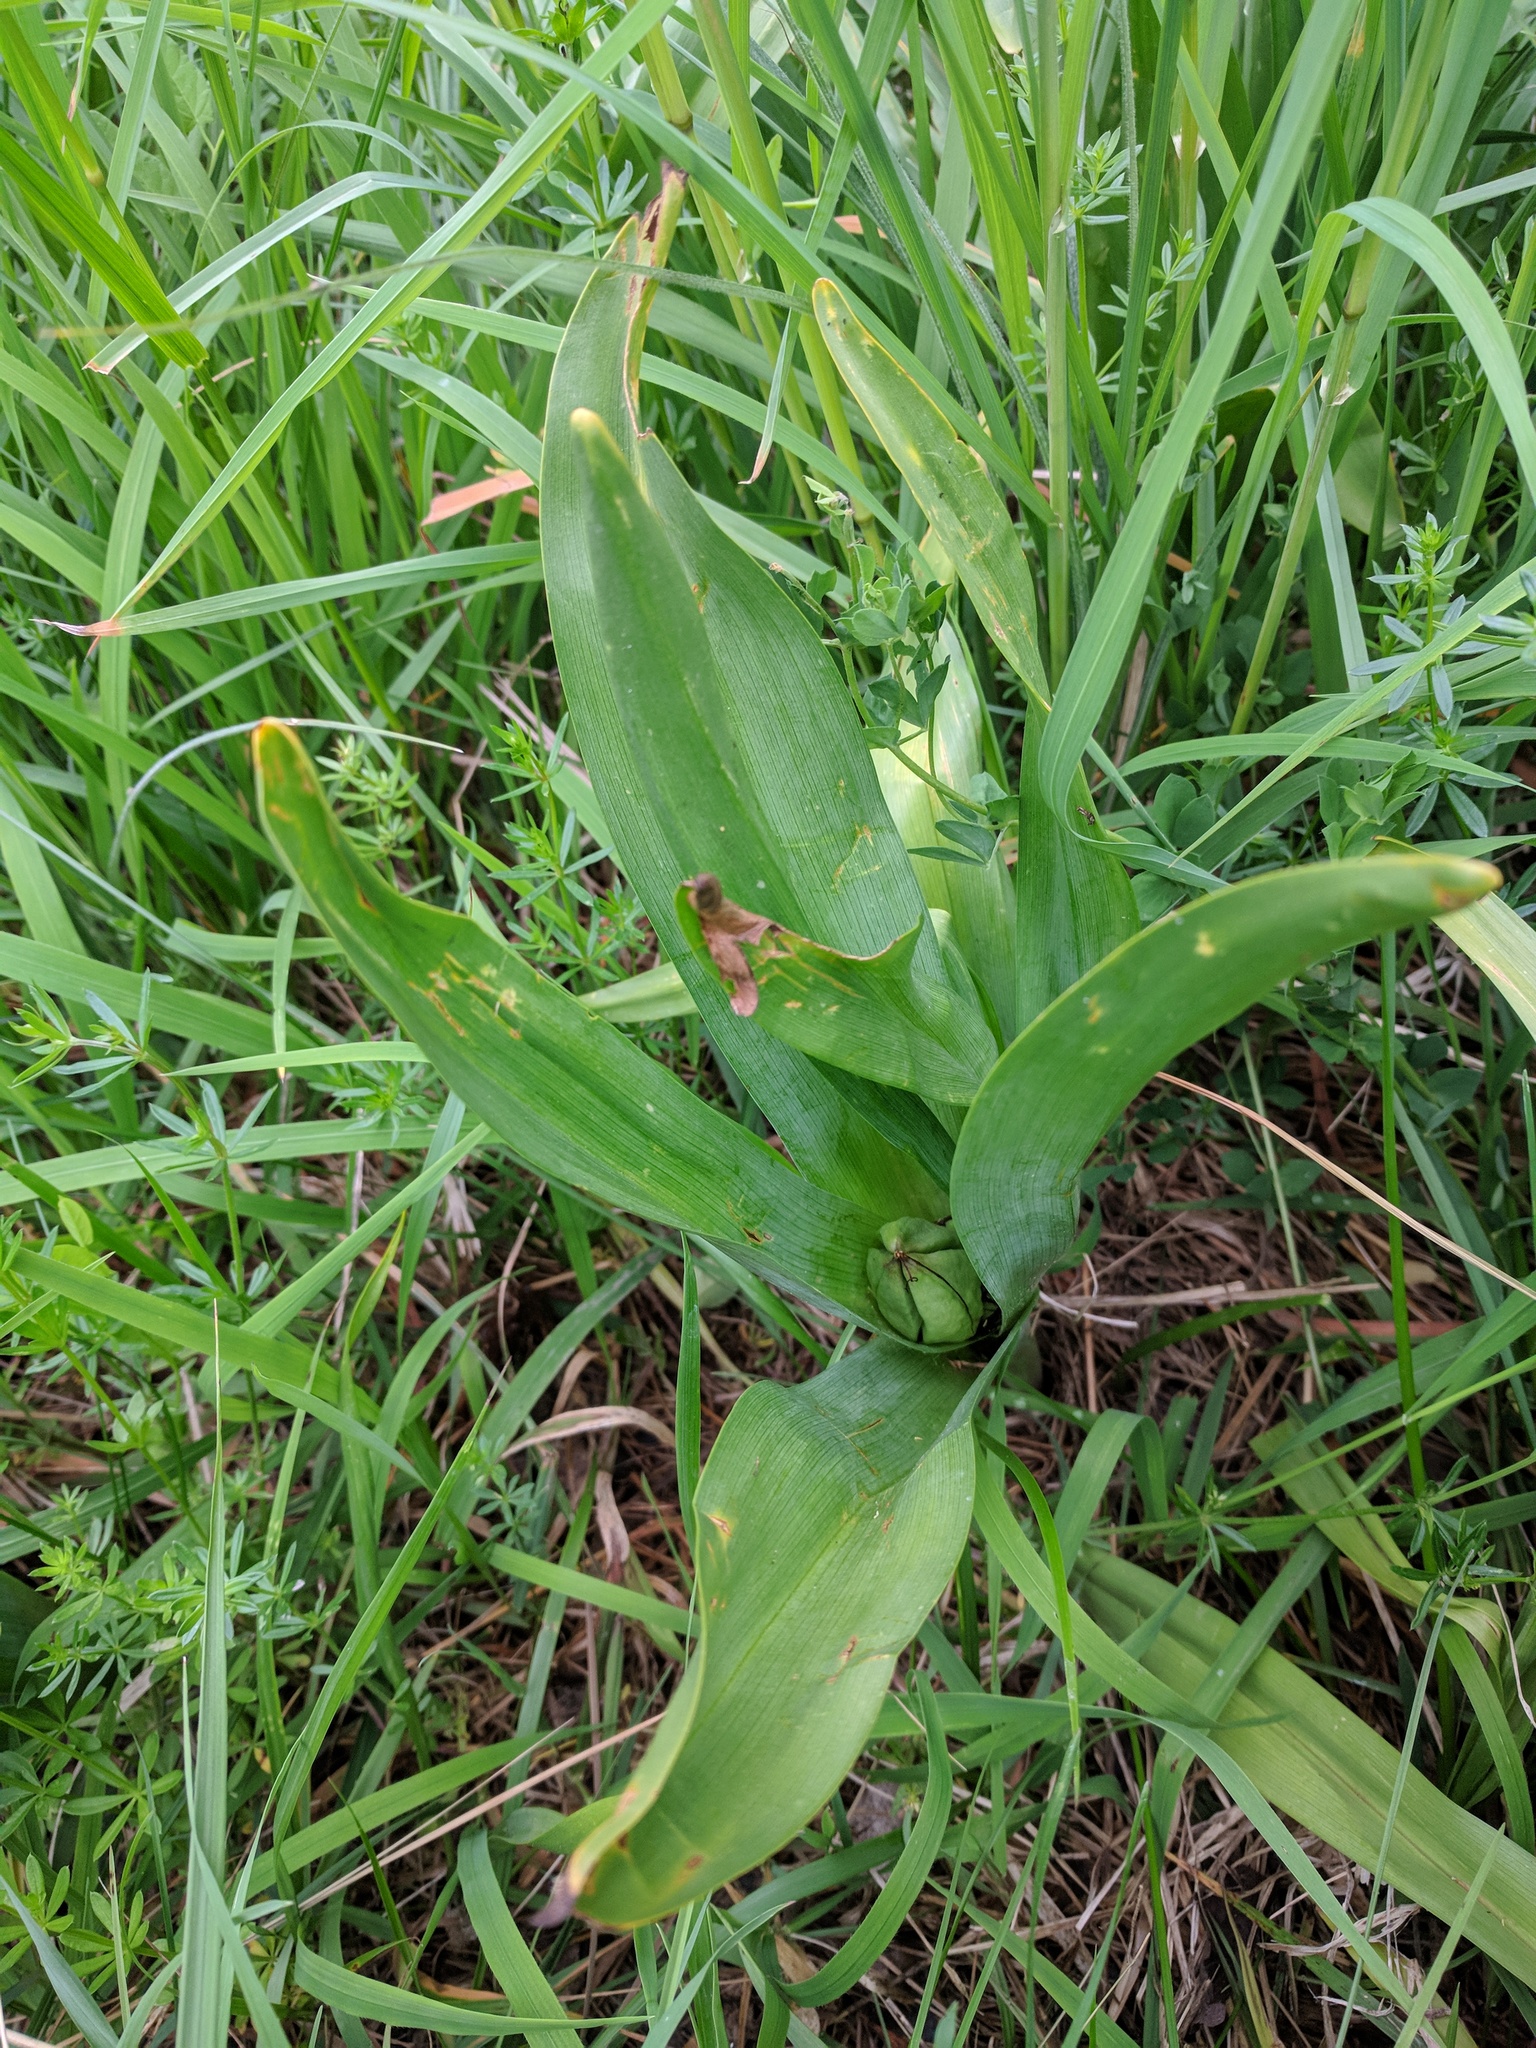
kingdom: Plantae
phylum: Tracheophyta
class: Liliopsida
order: Liliales
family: Colchicaceae
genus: Colchicum
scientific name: Colchicum autumnale
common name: Autumn crocus
